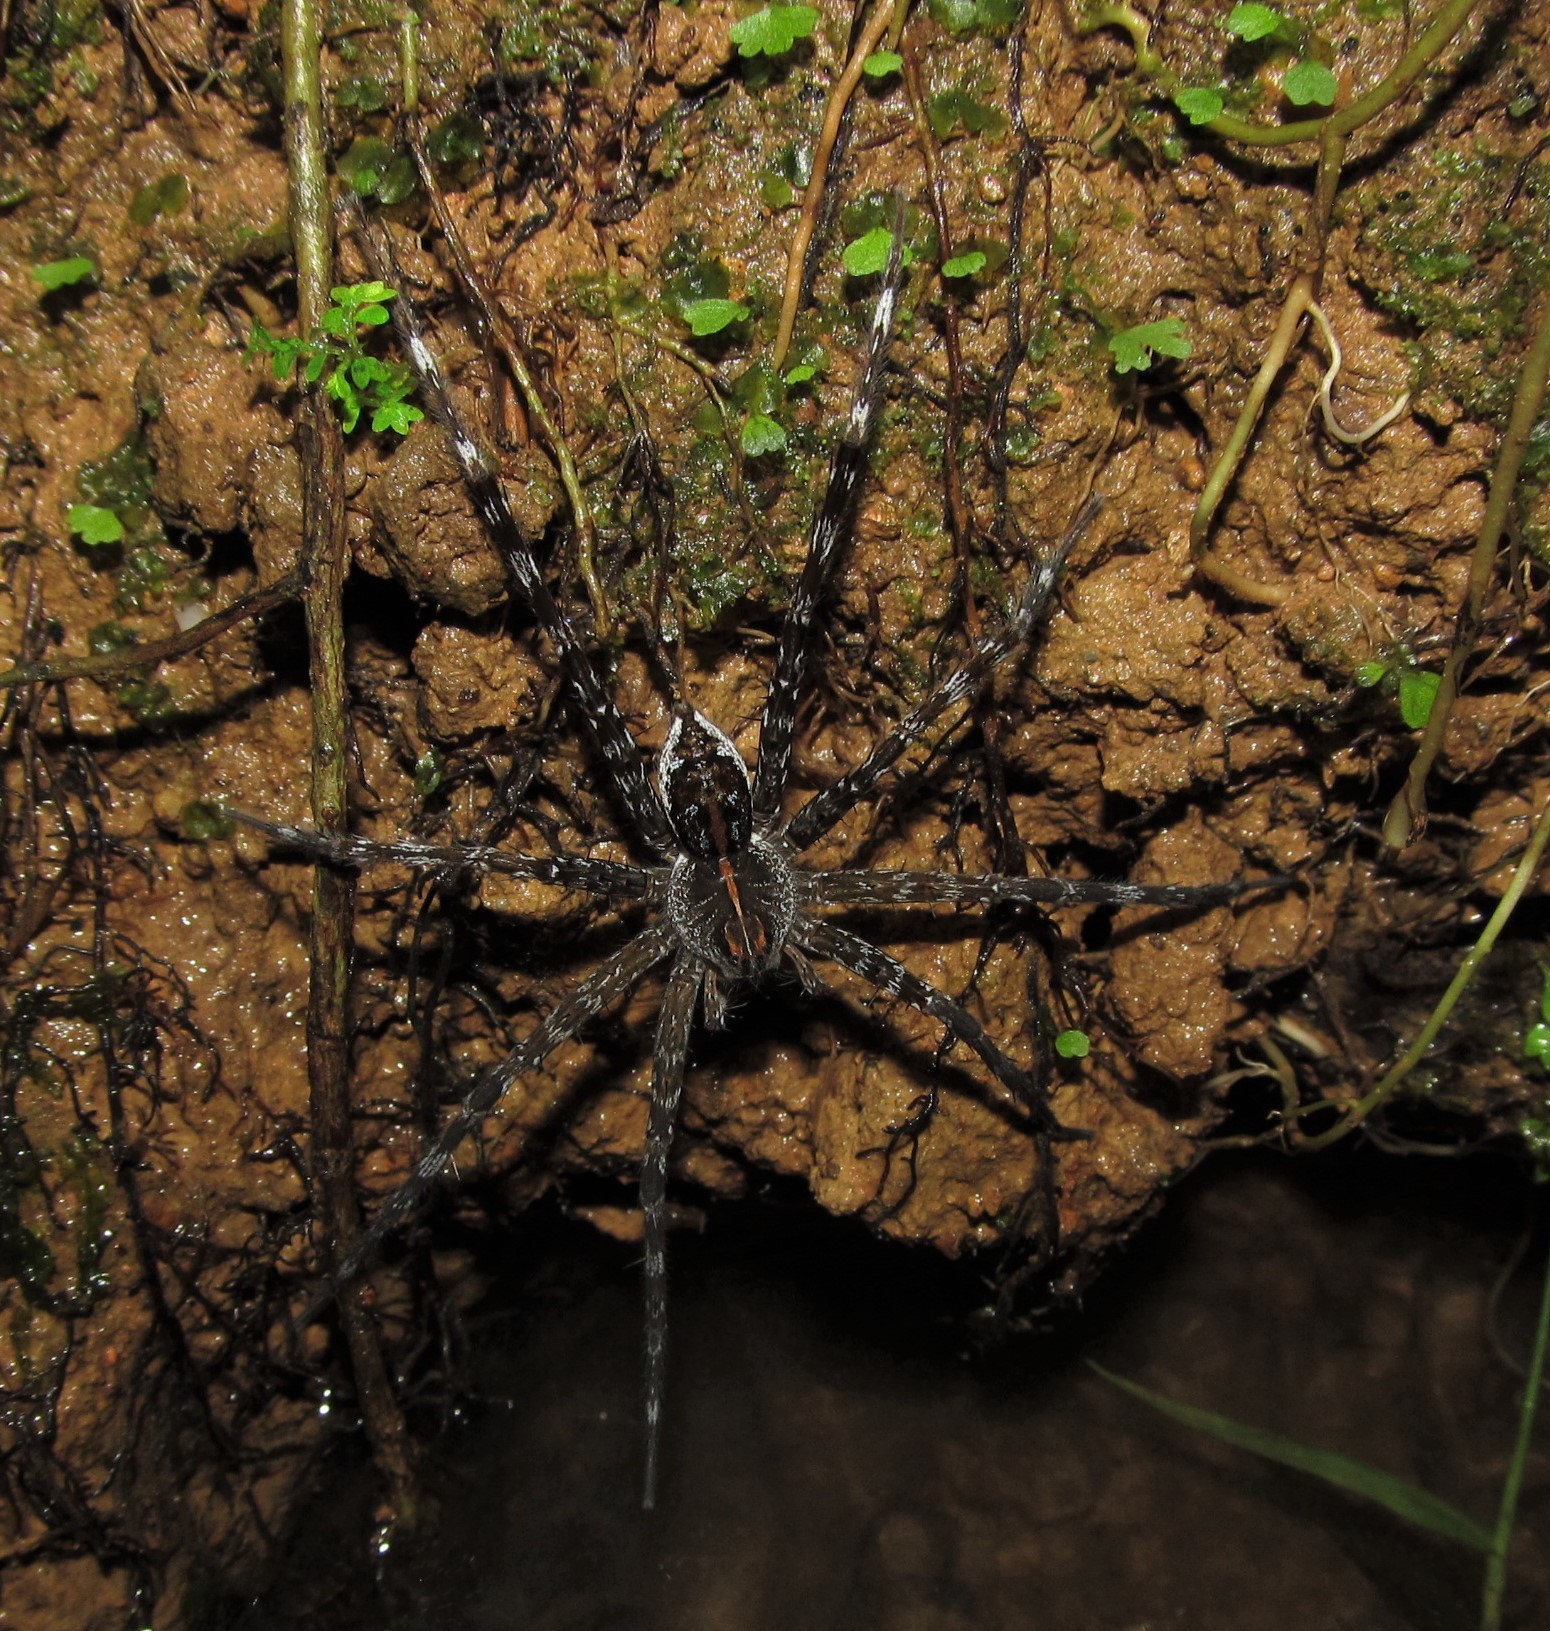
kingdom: Animalia
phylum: Arthropoda
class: Arachnida
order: Araneae
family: Pisauridae
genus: Dolomedes
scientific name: Dolomedes mizhoanus
